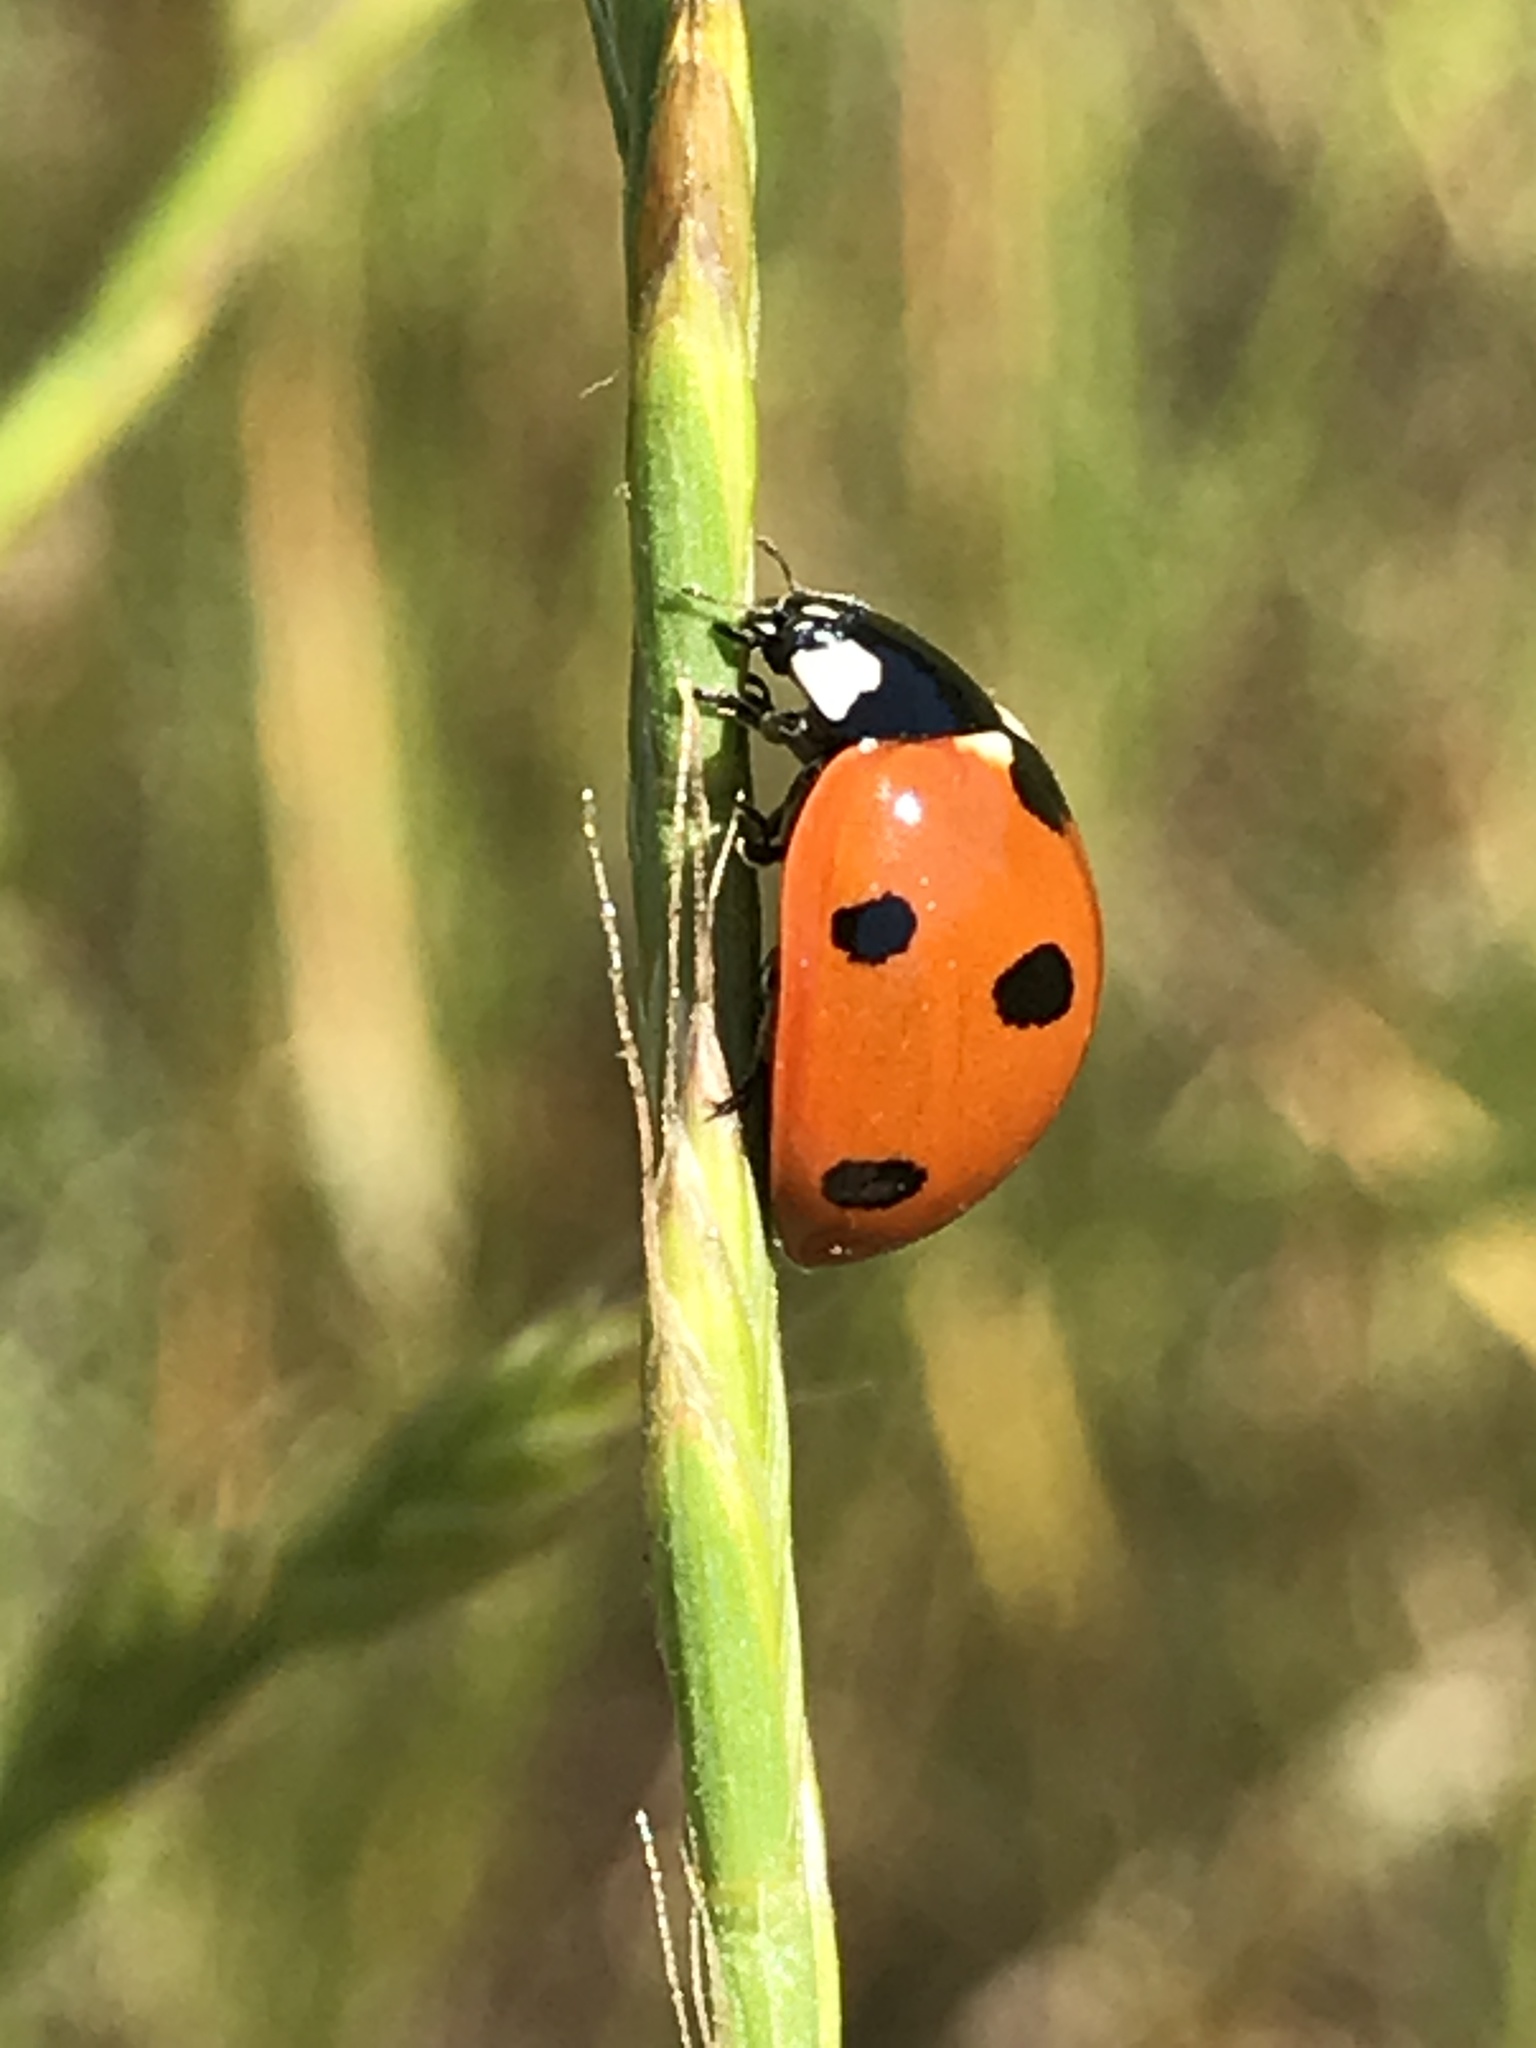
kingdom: Animalia
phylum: Arthropoda
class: Insecta
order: Coleoptera
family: Coccinellidae
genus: Coccinella
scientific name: Coccinella septempunctata
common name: Sevenspotted lady beetle
